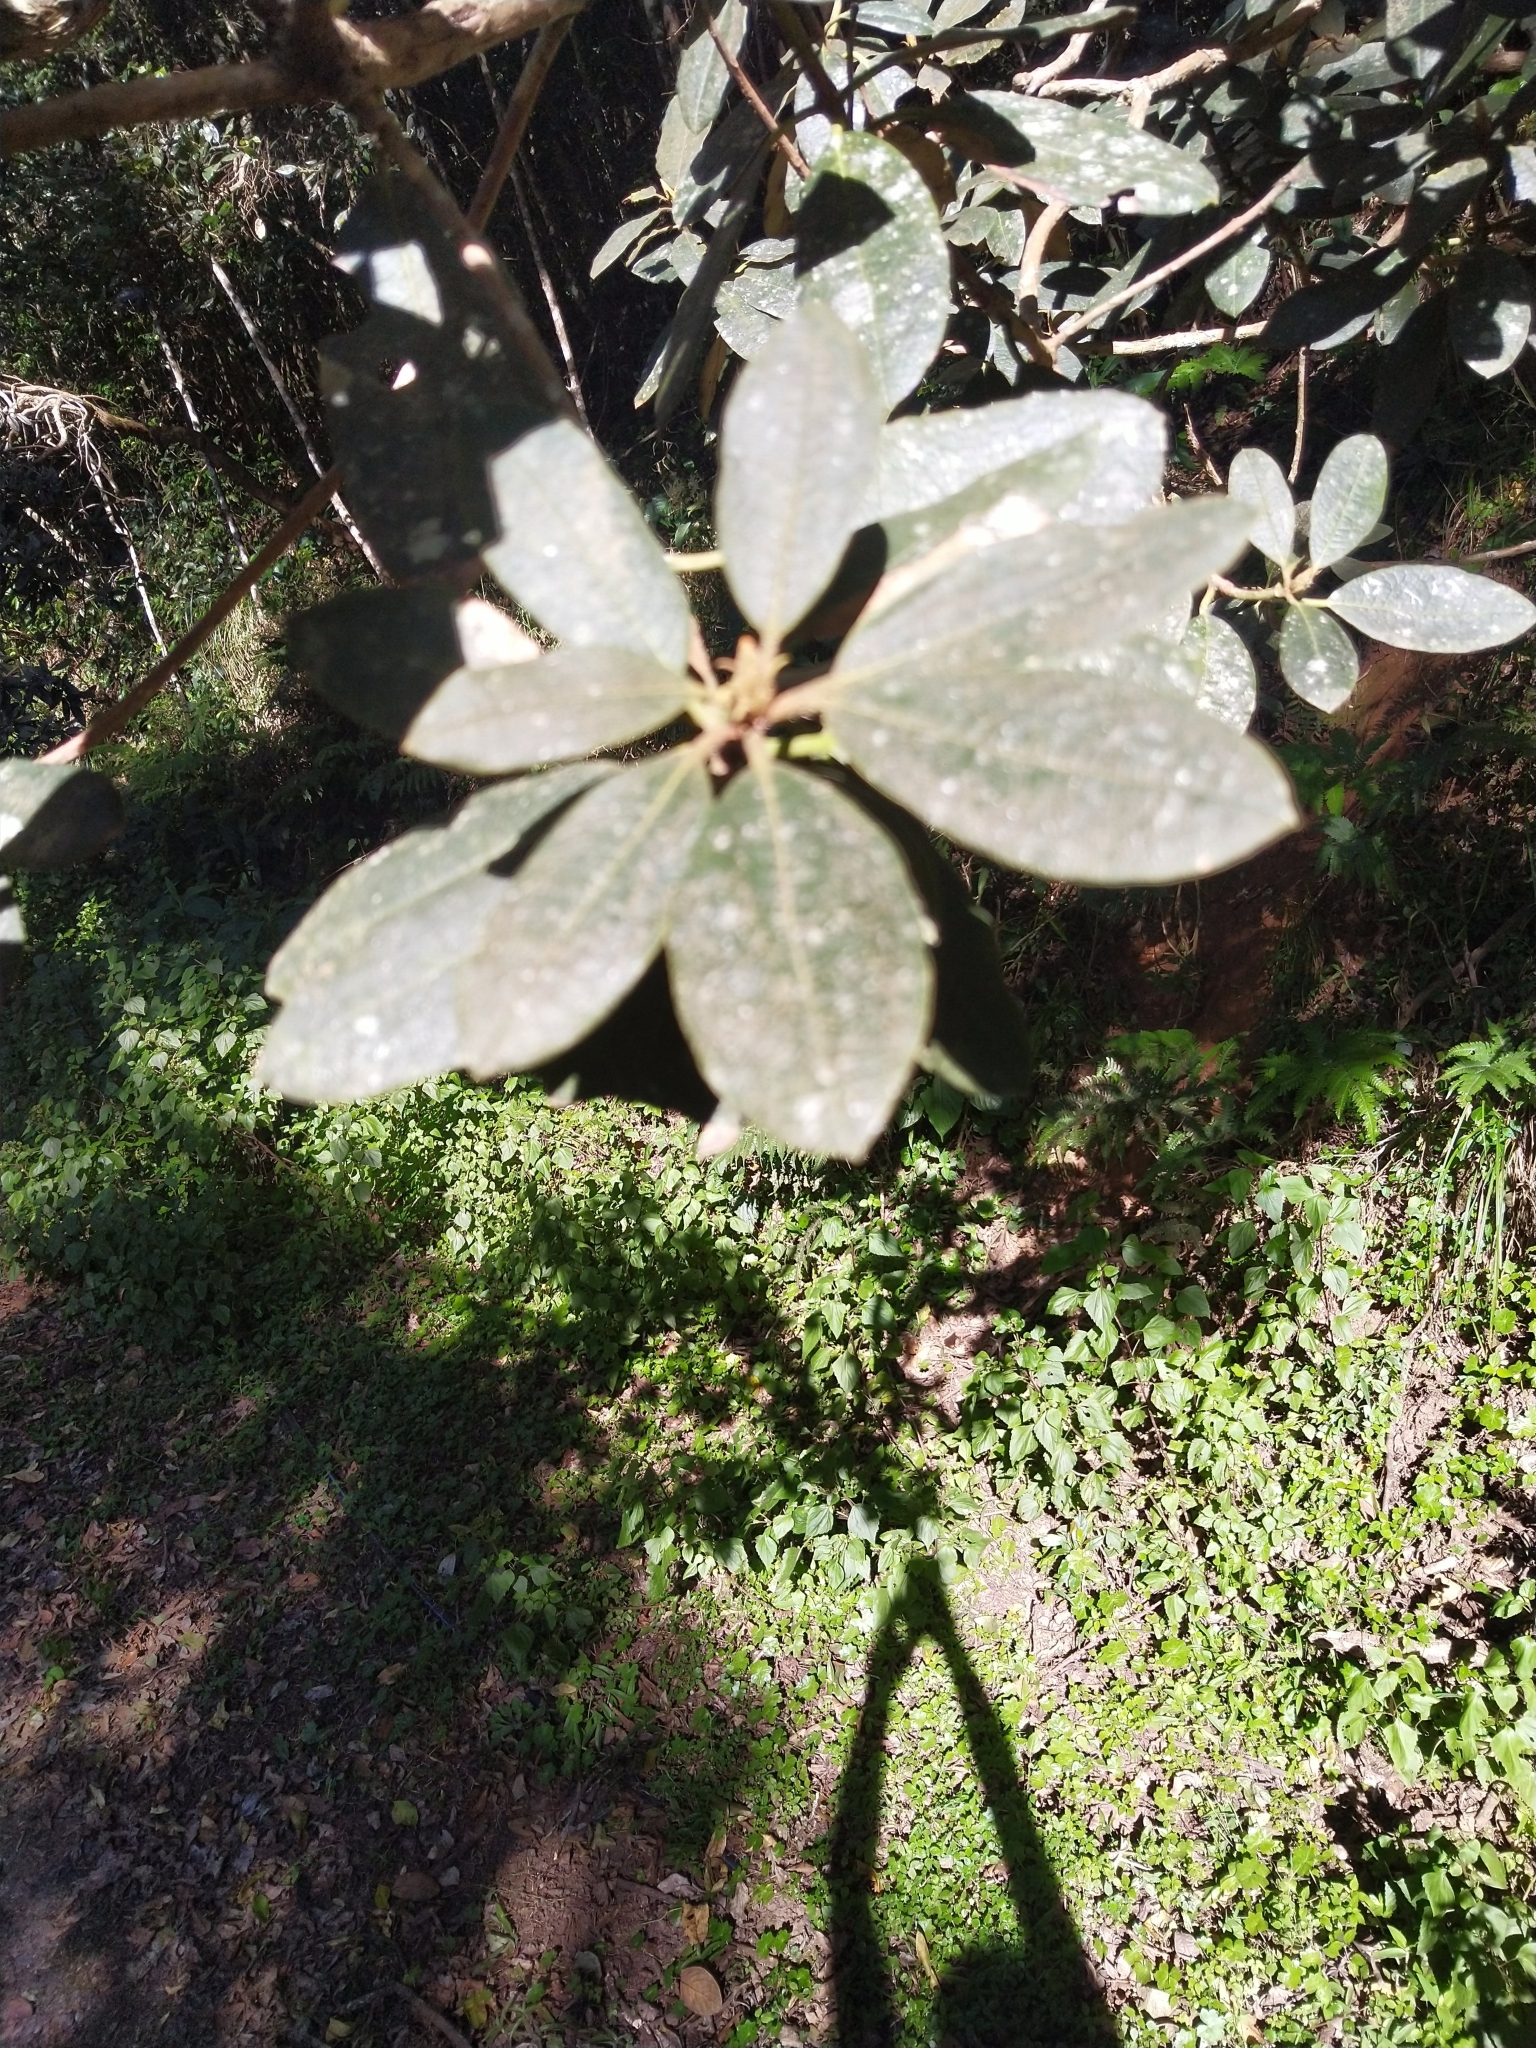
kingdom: Plantae
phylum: Tracheophyta
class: Magnoliopsida
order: Ericales
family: Ericaceae
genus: Rhododendron
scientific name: Rhododendron arboreum
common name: Tree rhododendron
